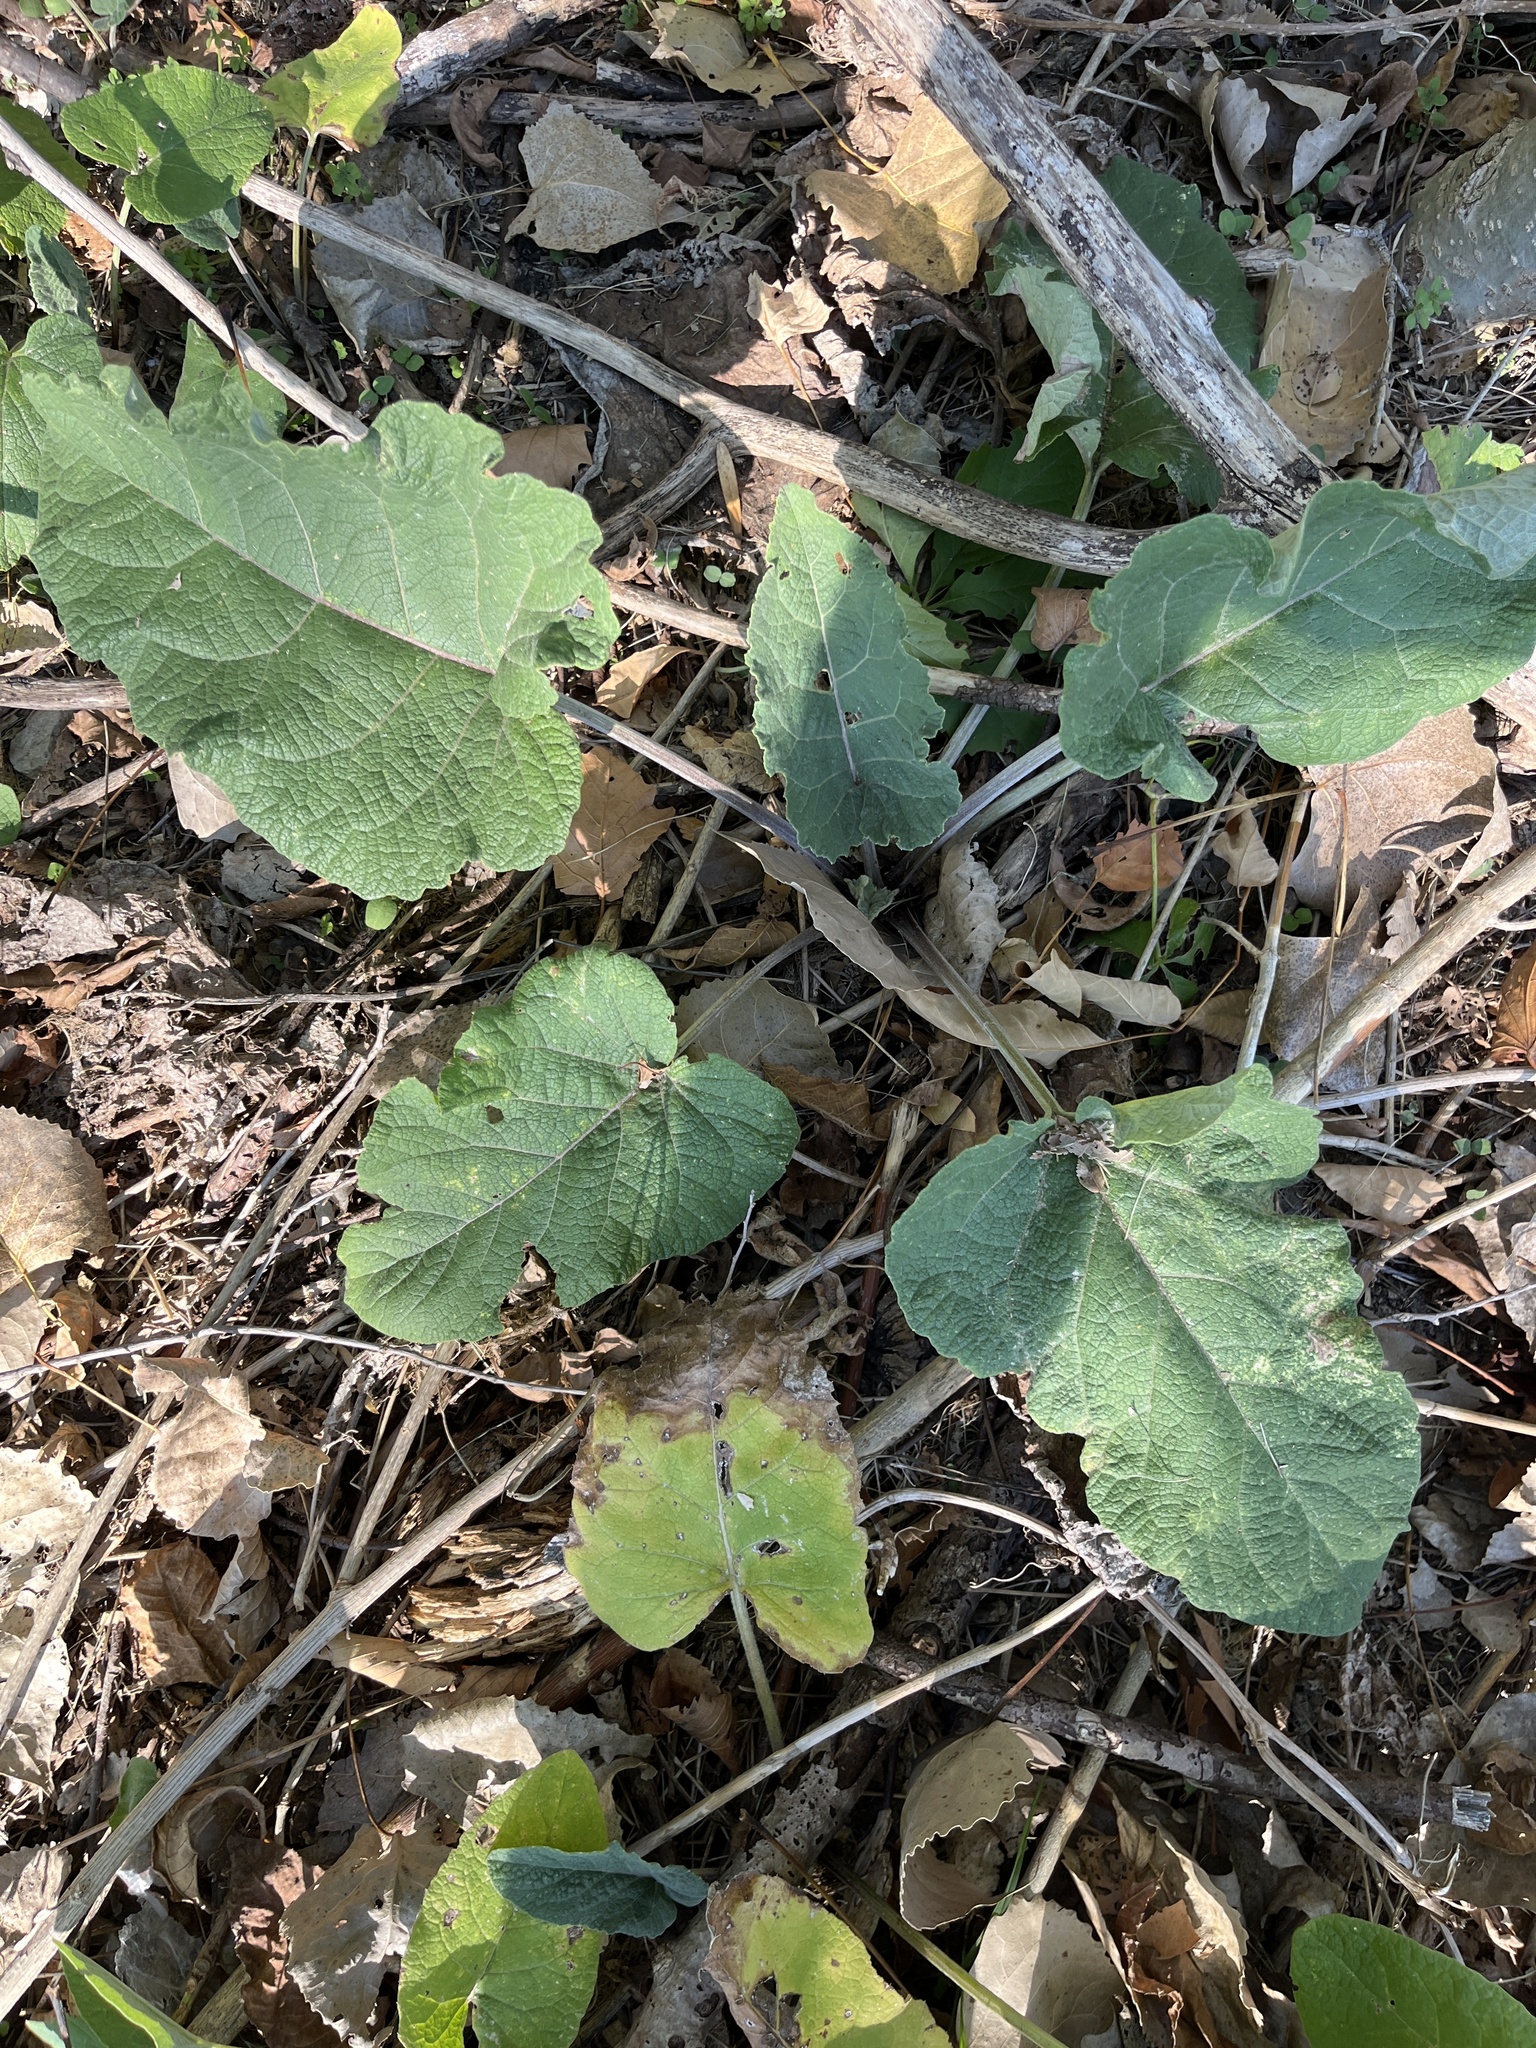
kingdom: Plantae
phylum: Tracheophyta
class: Magnoliopsida
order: Asterales
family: Asteraceae
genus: Arctium
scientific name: Arctium
